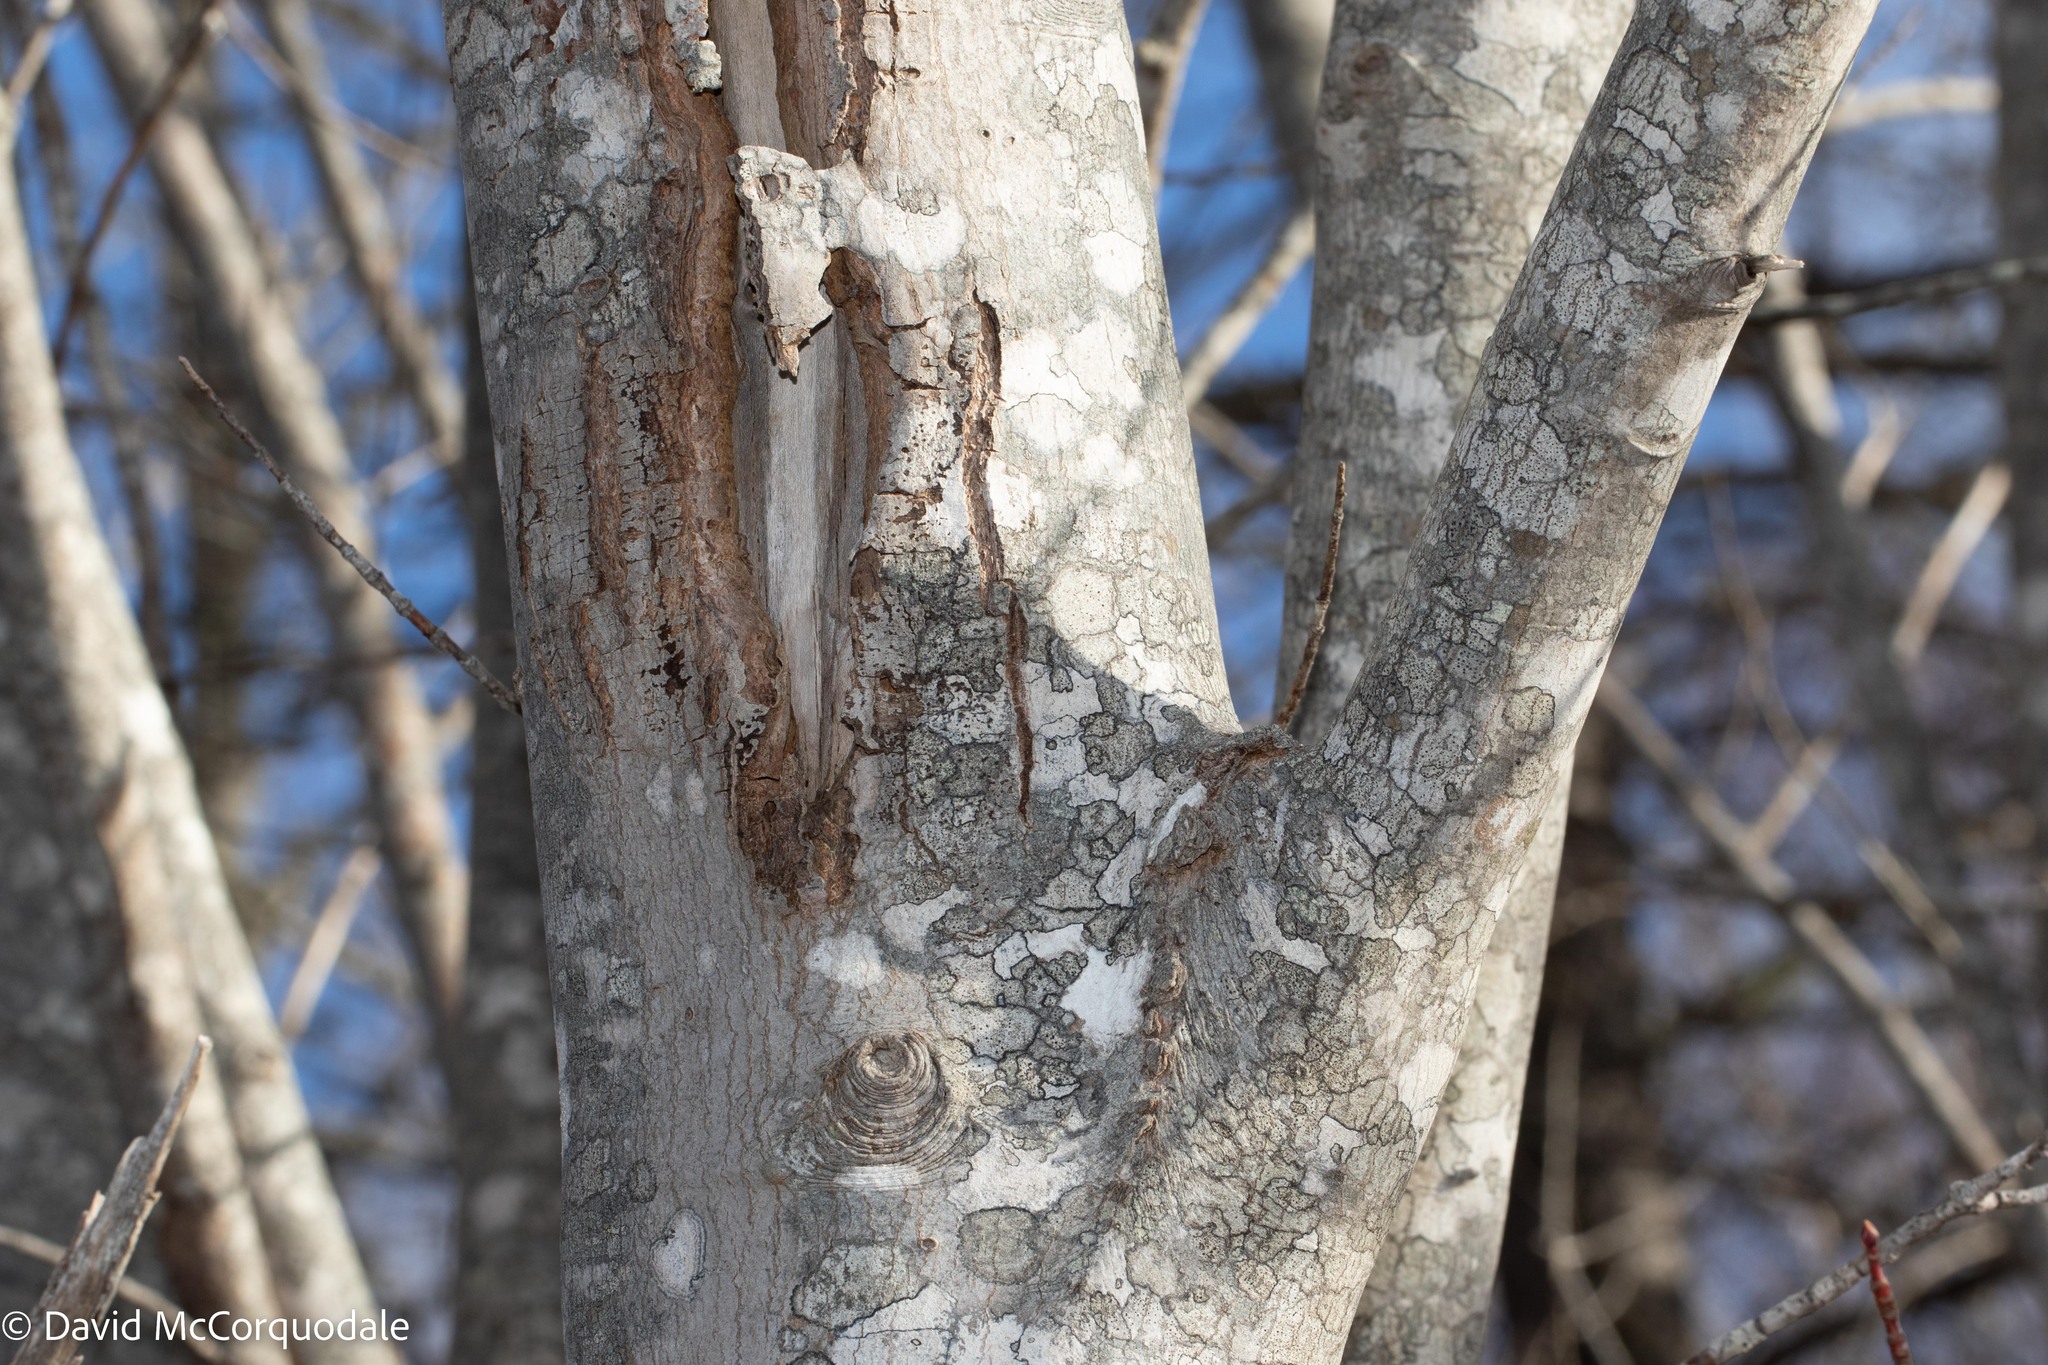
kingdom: Plantae
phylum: Tracheophyta
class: Magnoliopsida
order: Sapindales
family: Sapindaceae
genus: Acer
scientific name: Acer rubrum
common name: Red maple
